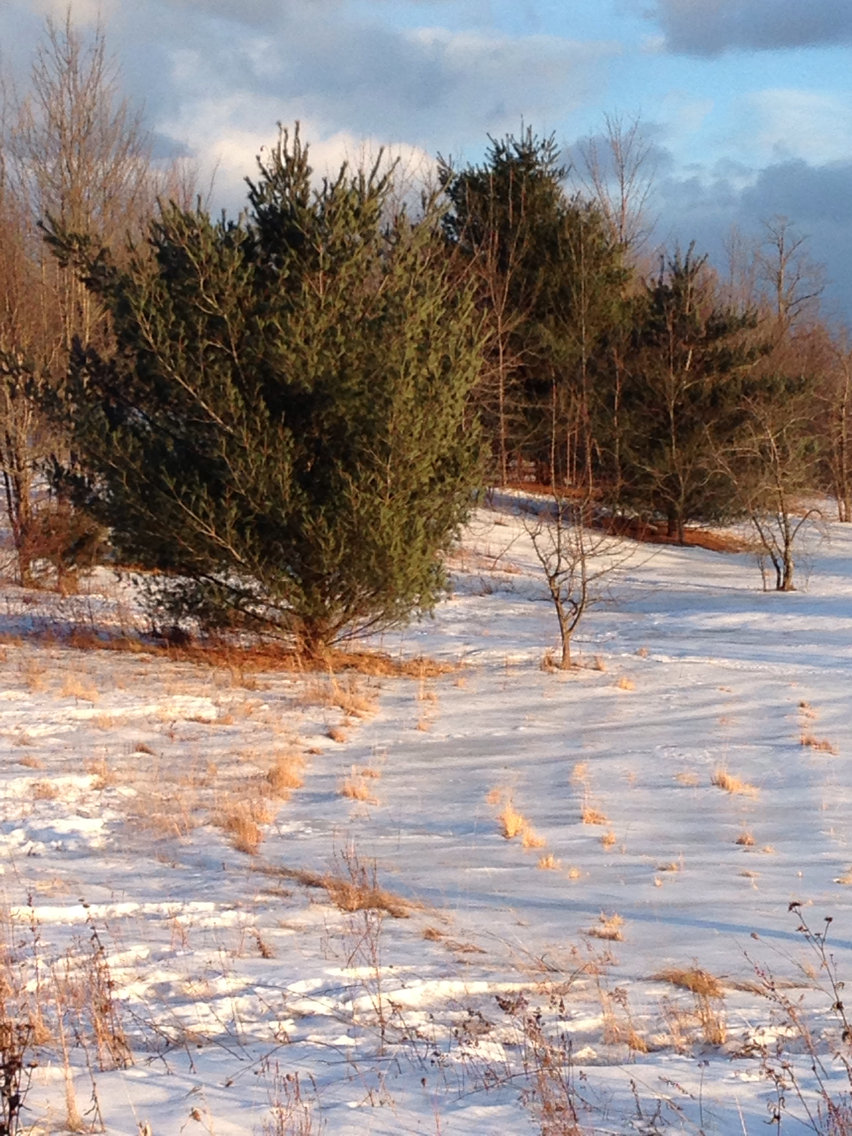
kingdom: Plantae
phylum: Tracheophyta
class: Pinopsida
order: Pinales
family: Pinaceae
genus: Pinus
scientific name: Pinus strobus
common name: Weymouth pine
